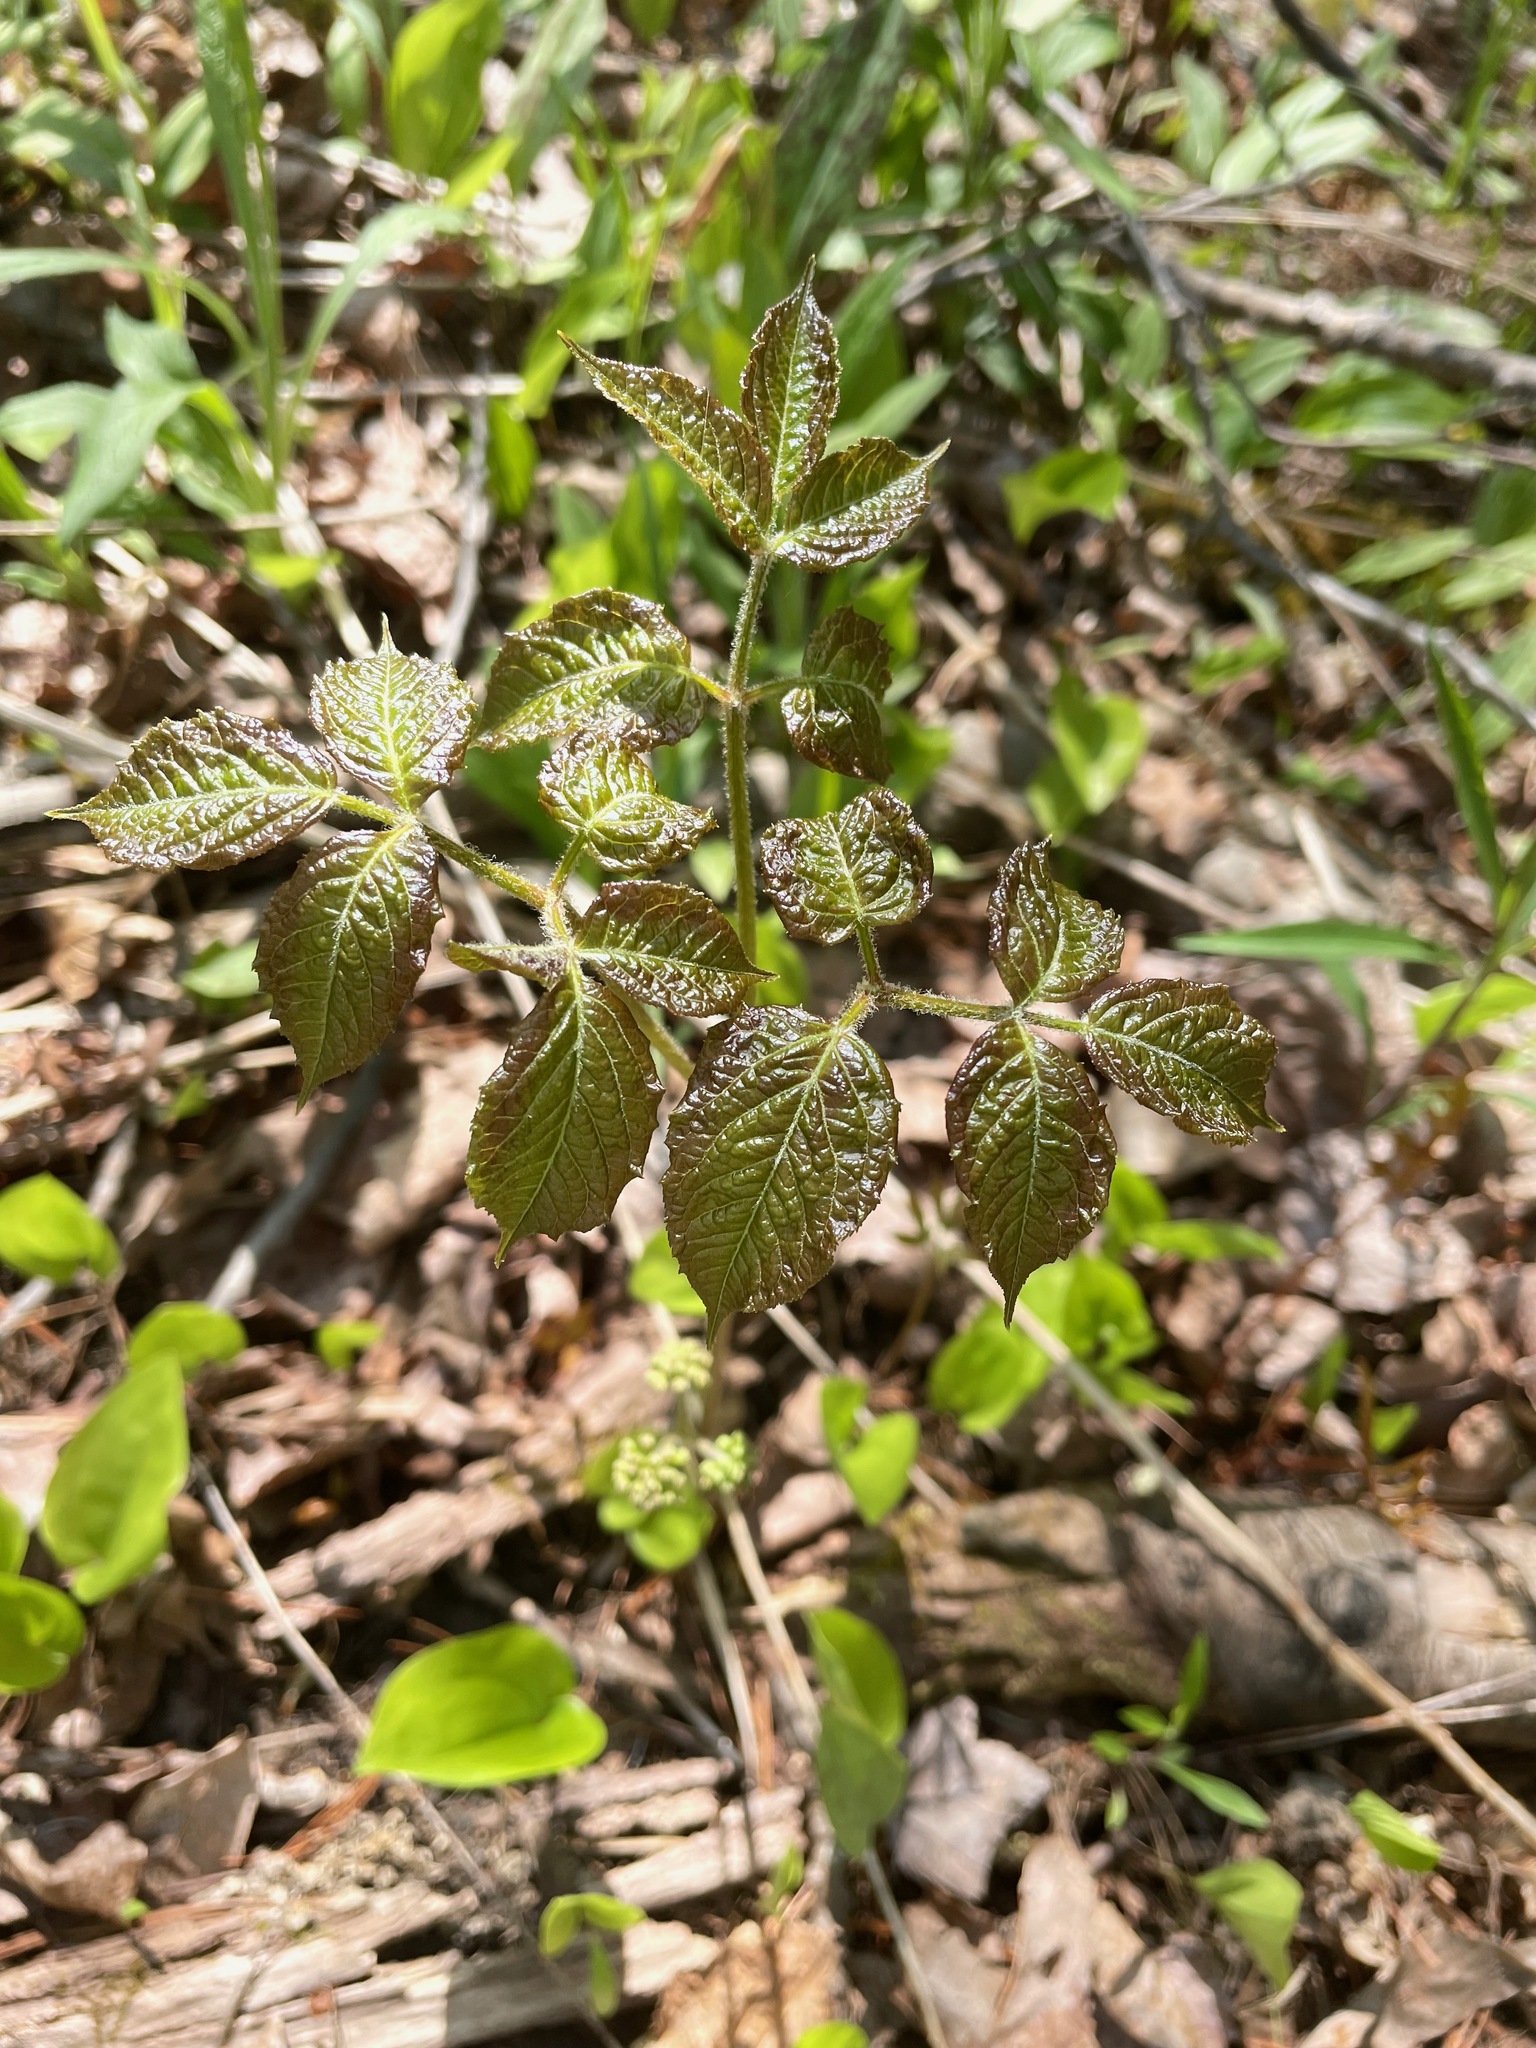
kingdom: Plantae
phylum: Tracheophyta
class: Magnoliopsida
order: Apiales
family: Araliaceae
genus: Aralia
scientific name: Aralia nudicaulis
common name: Wild sarsaparilla
